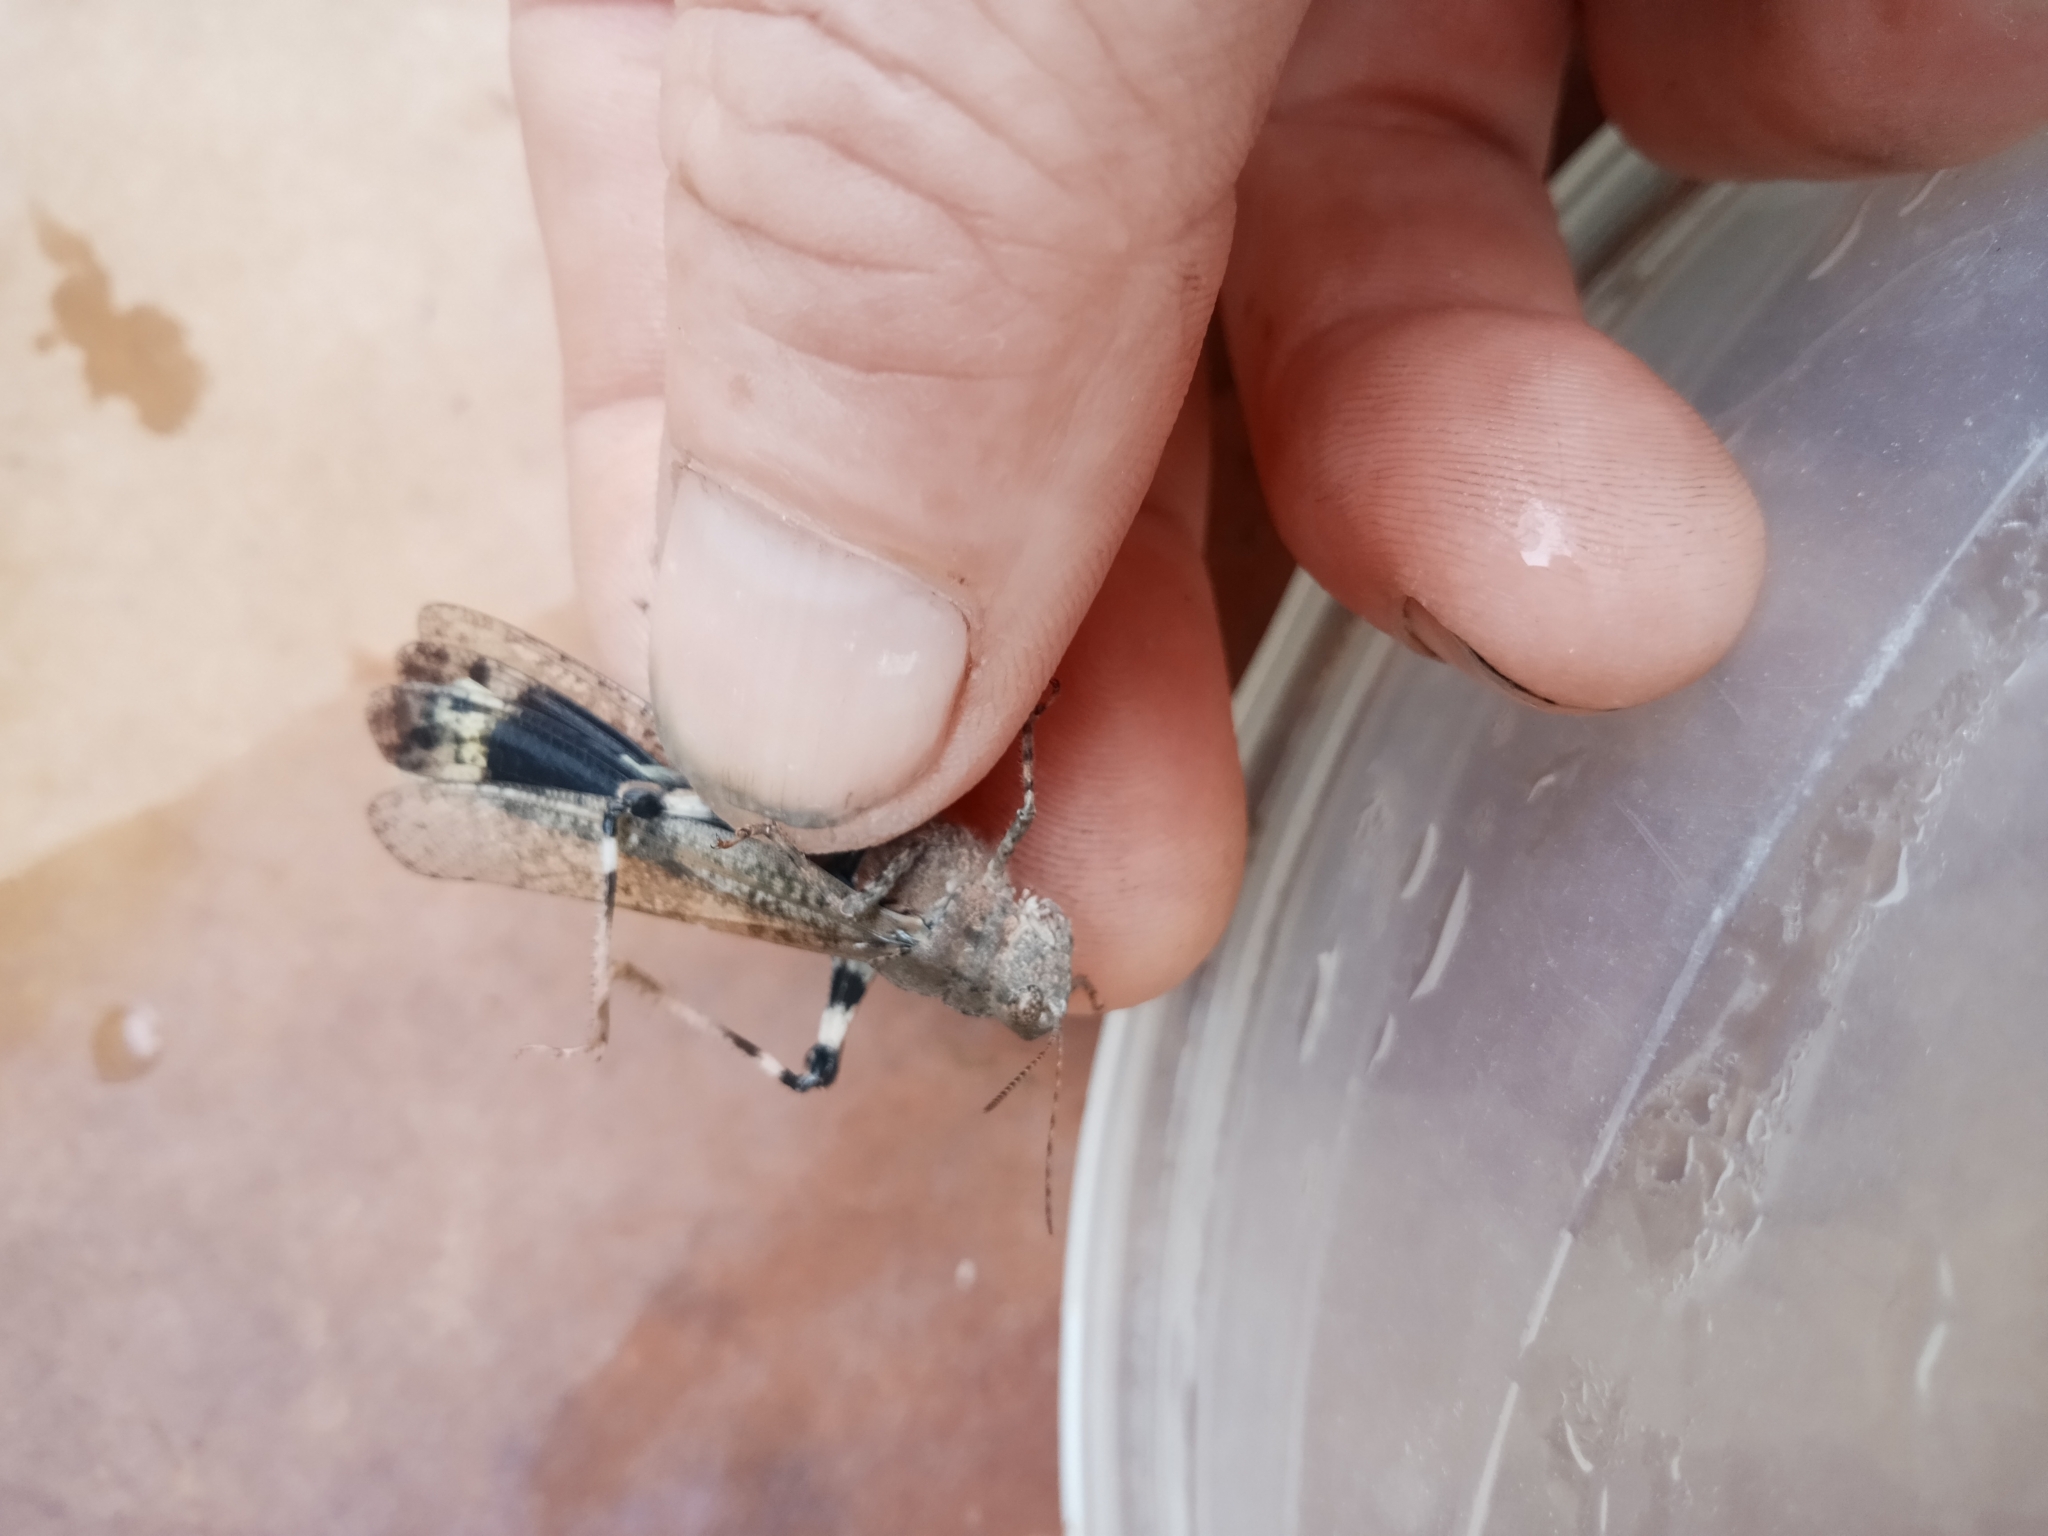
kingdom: Animalia
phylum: Arthropoda
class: Insecta
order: Orthoptera
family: Acrididae
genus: Dissosteira
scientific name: Dissosteira carolina
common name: Carolina grasshopper
